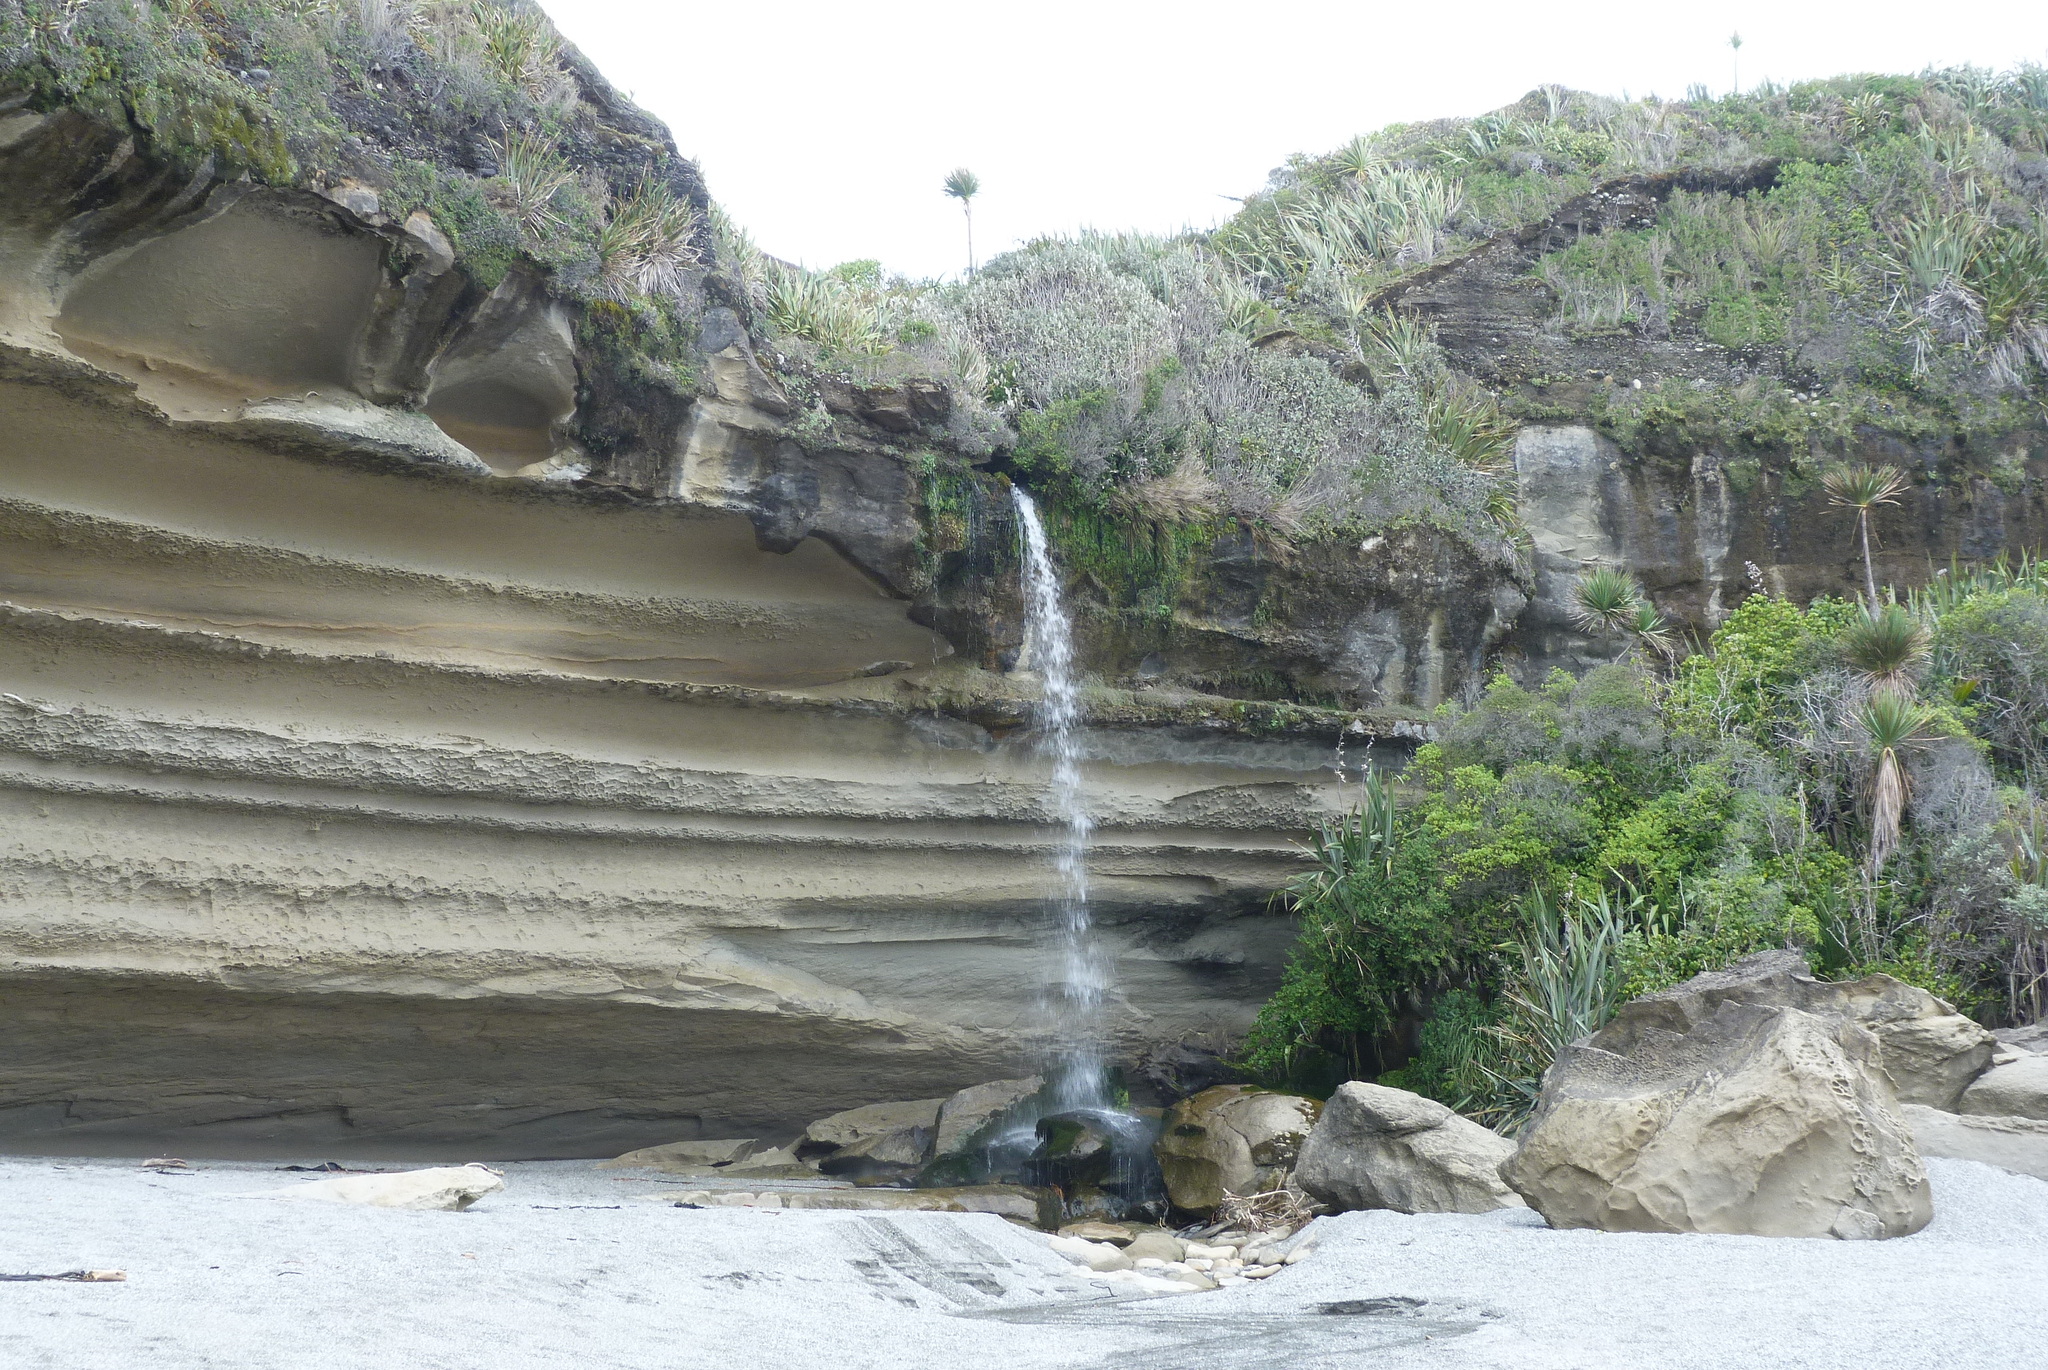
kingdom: Plantae
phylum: Tracheophyta
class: Liliopsida
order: Asparagales
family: Asparagaceae
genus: Cordyline
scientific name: Cordyline australis
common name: Cabbage-palm
